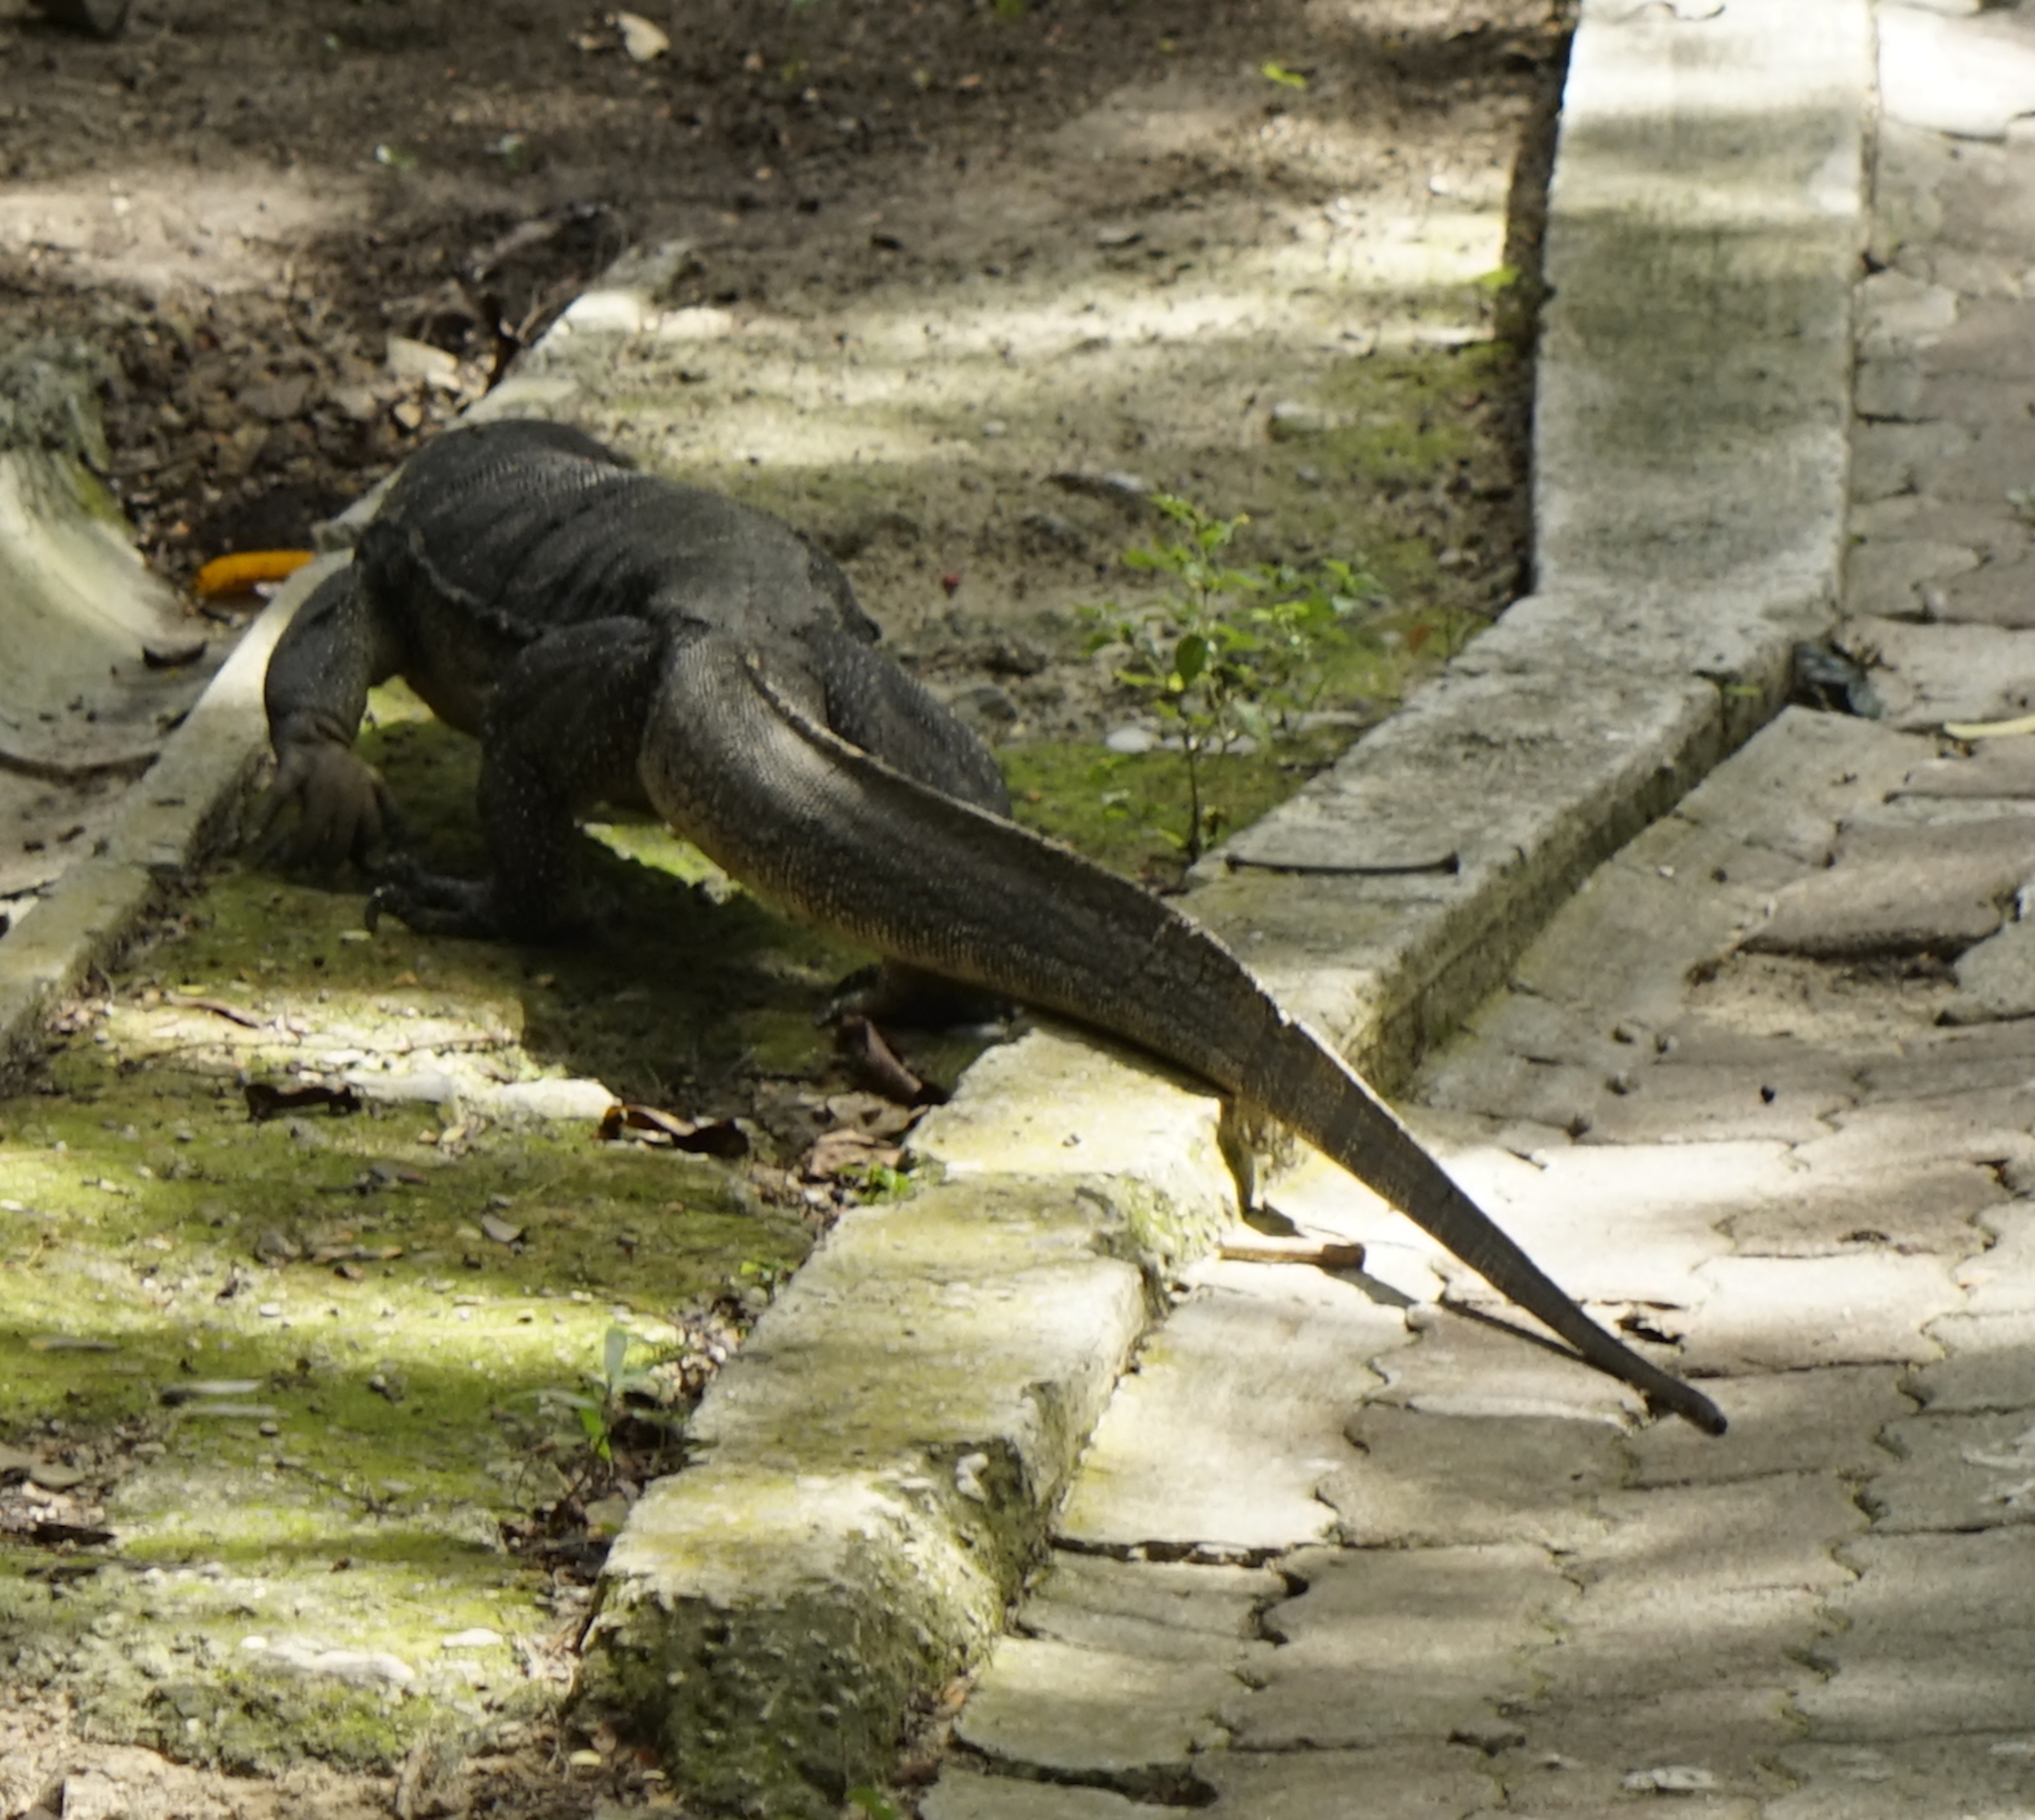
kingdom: Animalia
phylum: Chordata
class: Squamata
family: Varanidae
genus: Varanus
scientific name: Varanus salvator
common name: Common water monitor
